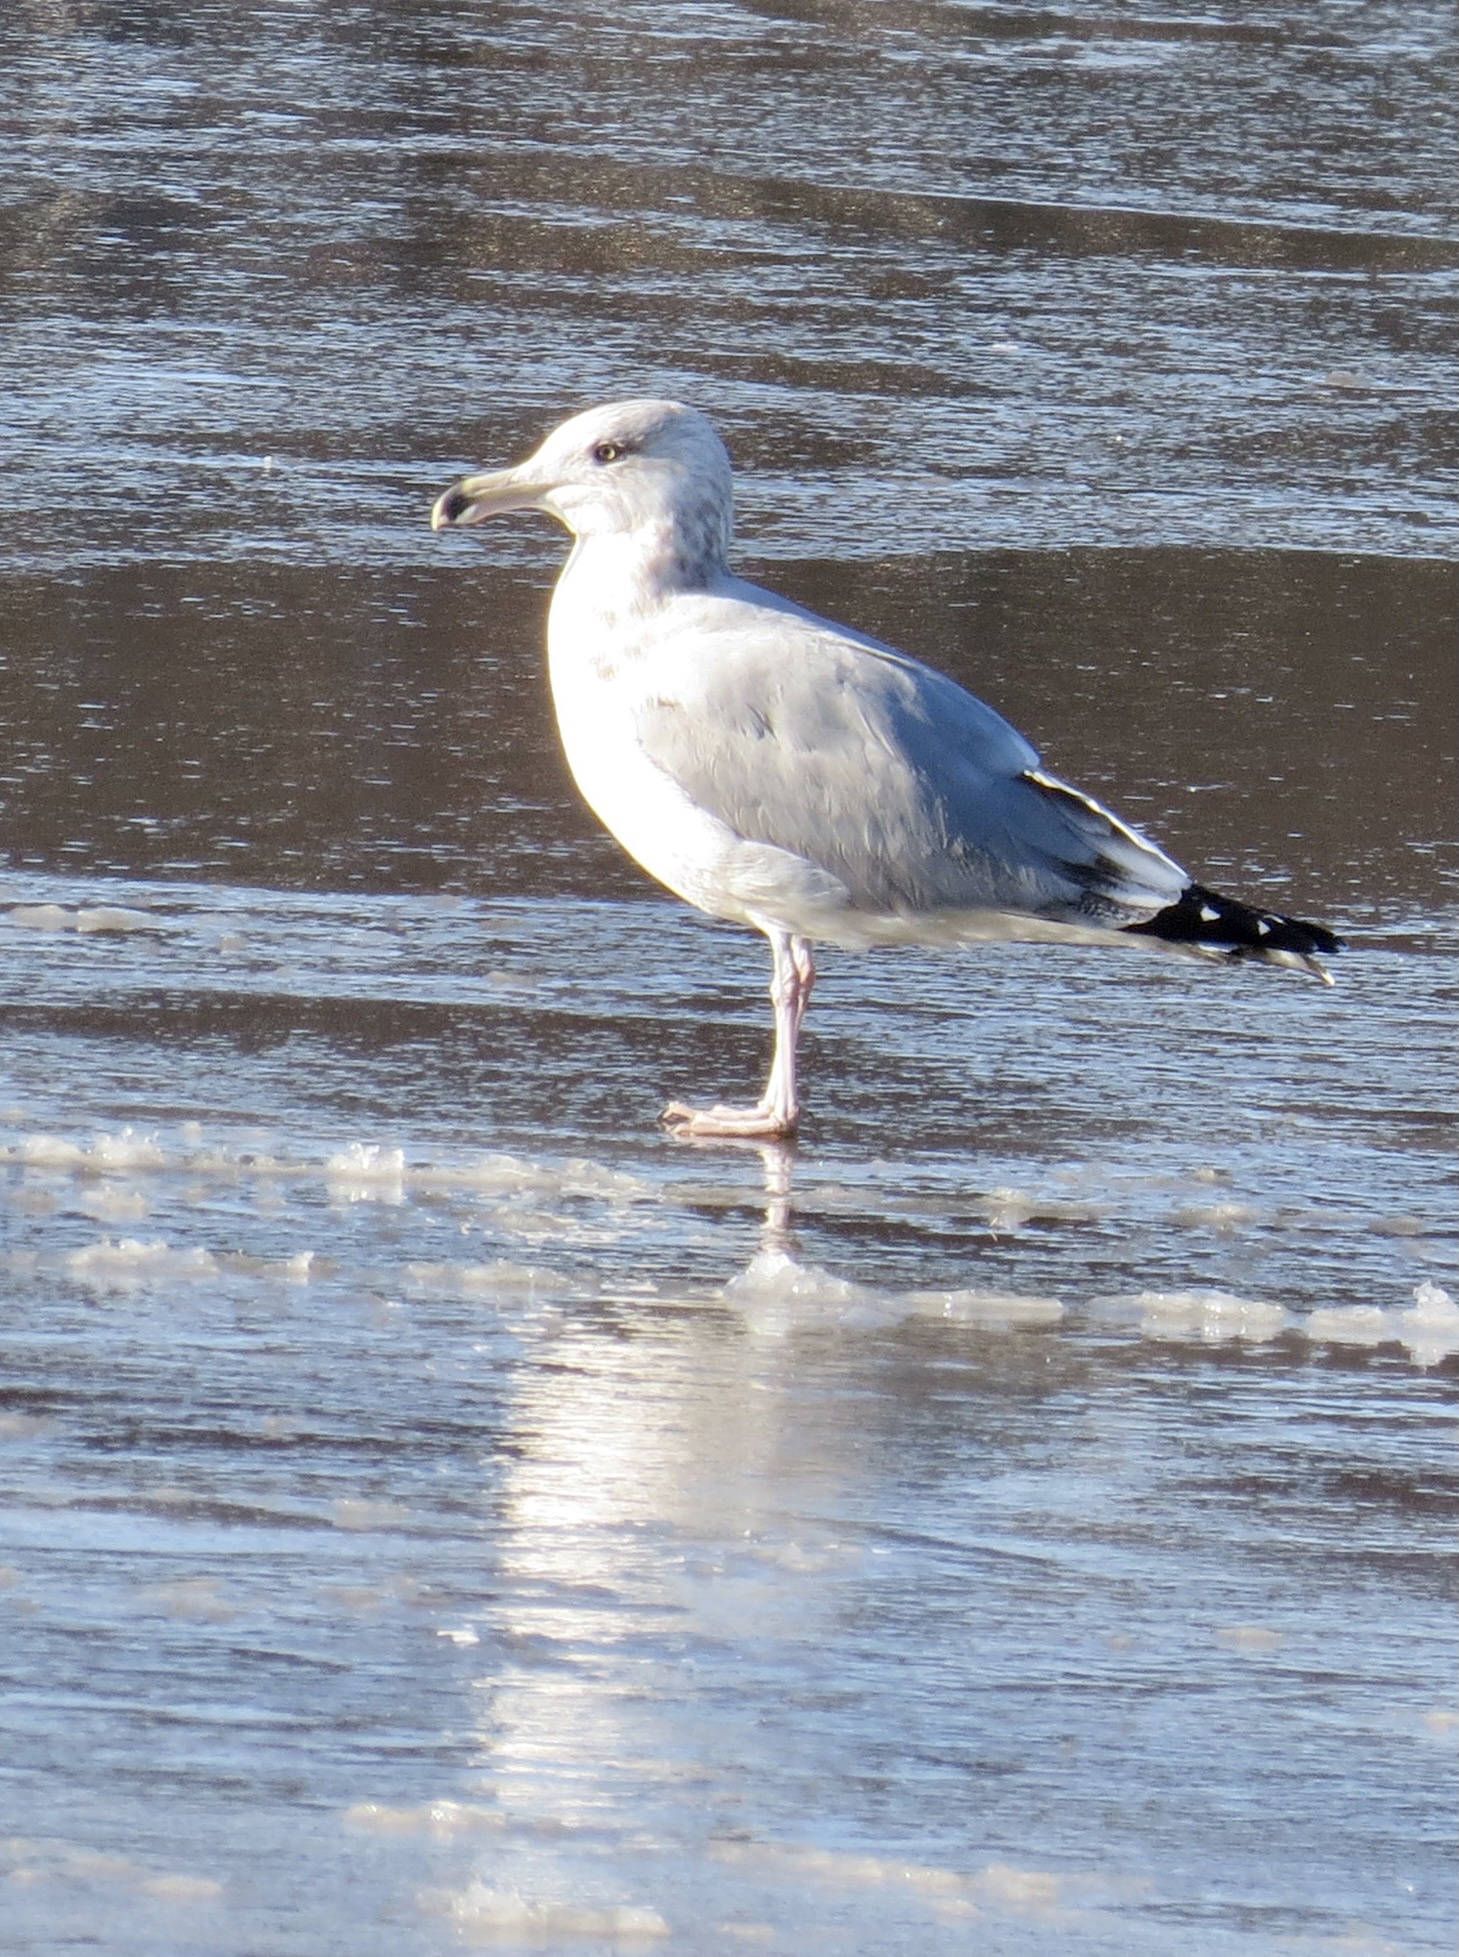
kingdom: Animalia
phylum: Chordata
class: Aves
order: Charadriiformes
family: Laridae
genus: Larus
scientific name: Larus argentatus
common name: Herring gull
